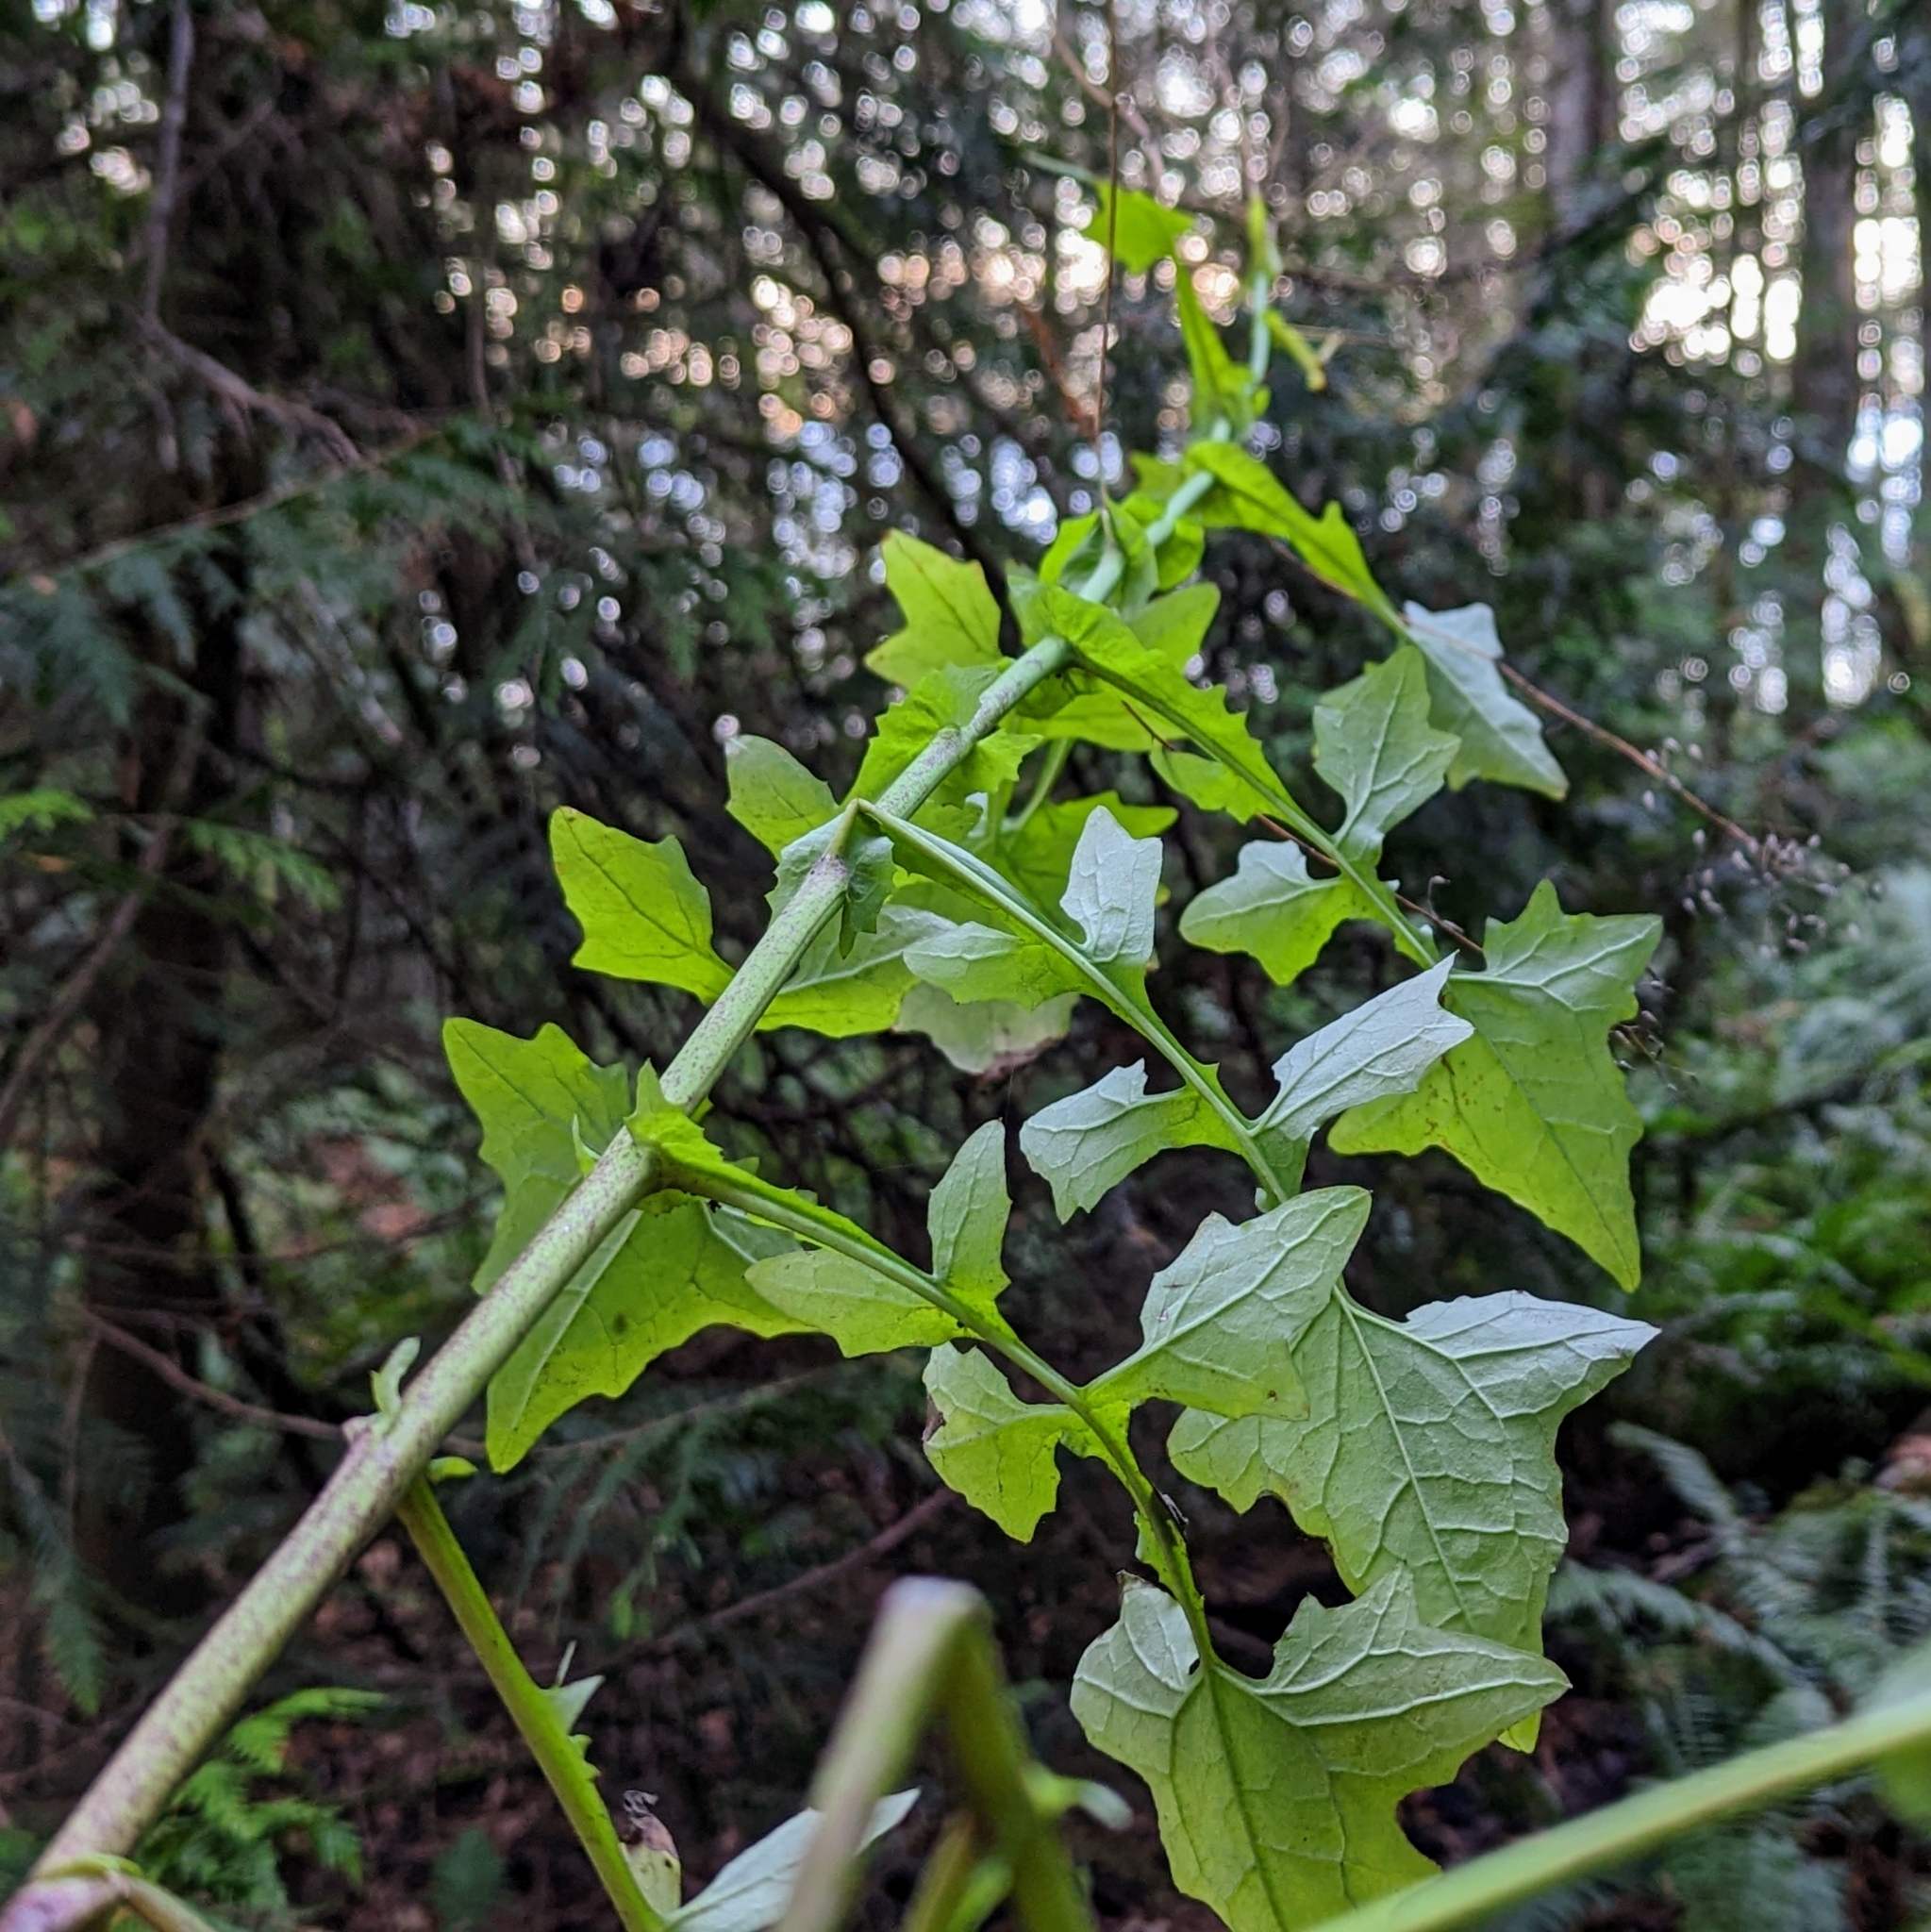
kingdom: Plantae
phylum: Tracheophyta
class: Magnoliopsida
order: Asterales
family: Asteraceae
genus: Mycelis
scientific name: Mycelis muralis
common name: Wall lettuce
